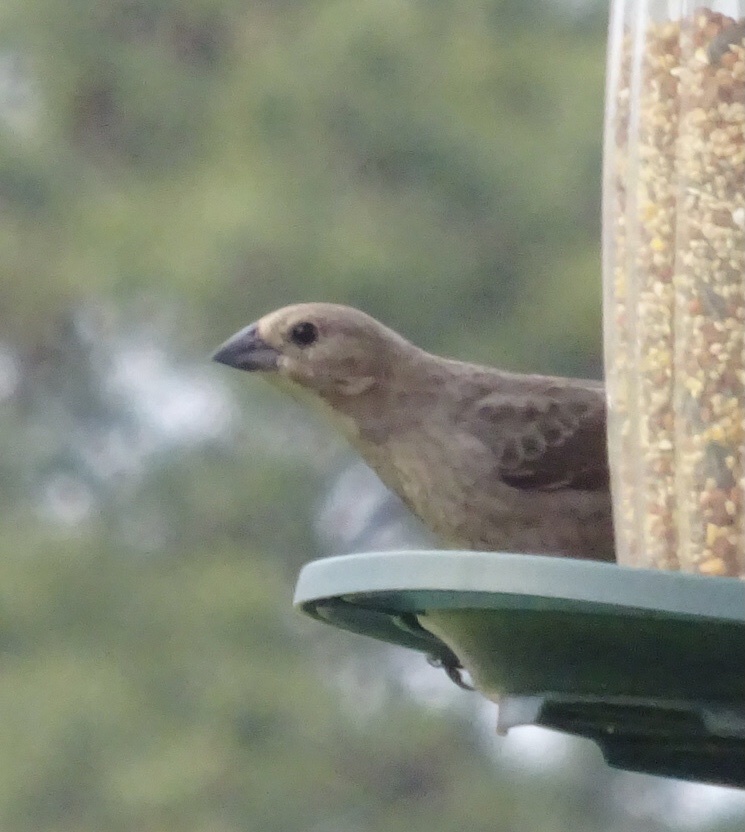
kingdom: Animalia
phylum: Chordata
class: Aves
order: Passeriformes
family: Icteridae
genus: Molothrus
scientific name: Molothrus ater
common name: Brown-headed cowbird
